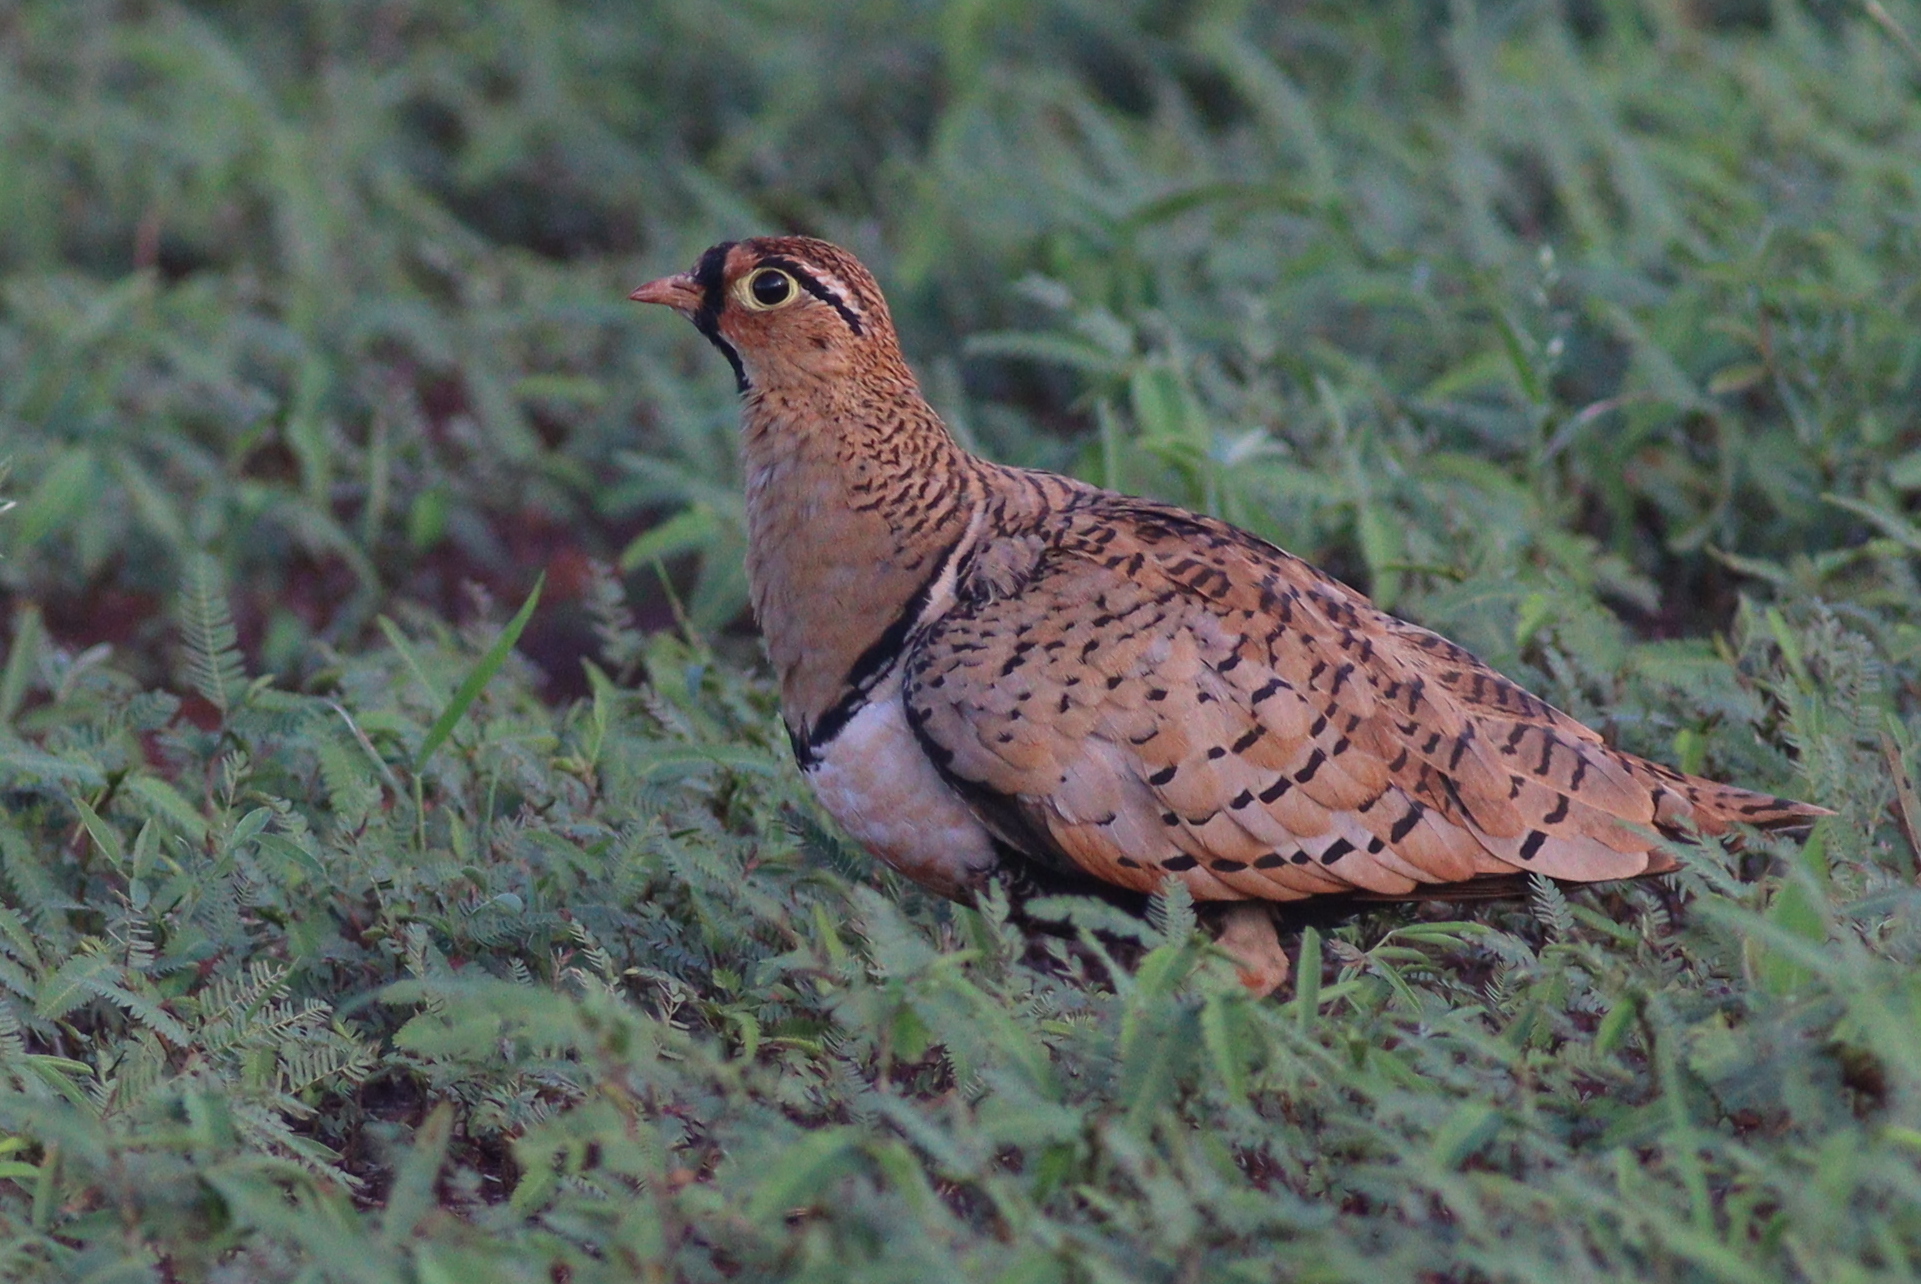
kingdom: Animalia
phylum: Chordata
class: Aves
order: Pteroclidiformes
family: Pteroclididae
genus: Pterocles
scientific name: Pterocles decoratus
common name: Black-faced sandgrouse
